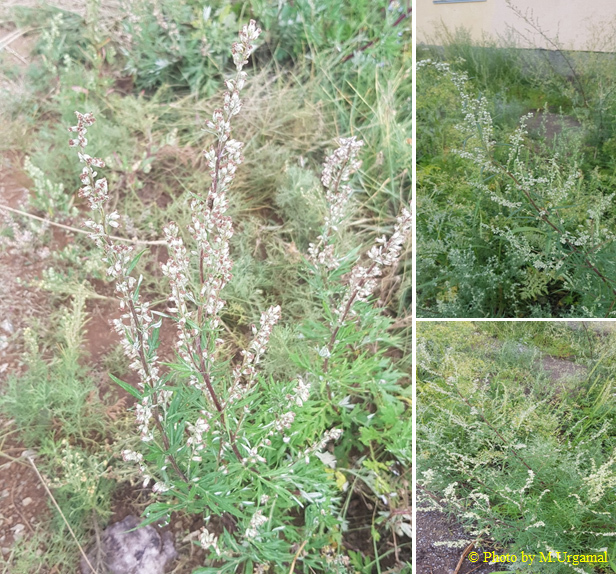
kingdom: Plantae
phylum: Tracheophyta
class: Magnoliopsida
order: Asterales
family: Asteraceae
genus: Artemisia
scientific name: Artemisia mongolica
